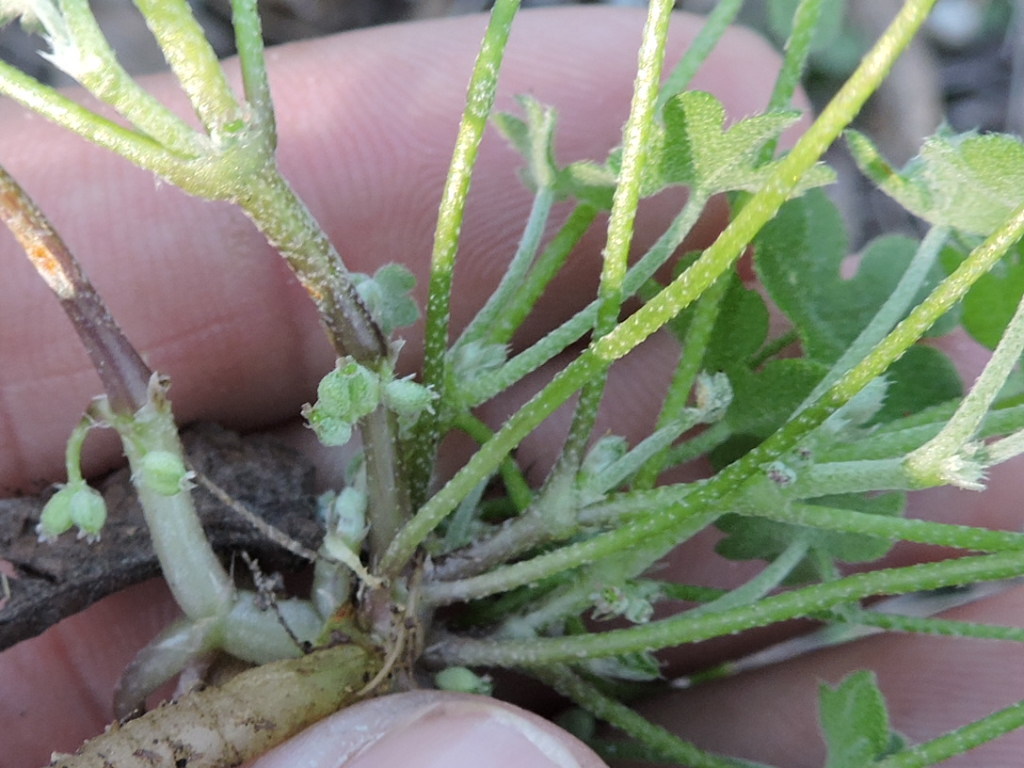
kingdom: Plantae
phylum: Tracheophyta
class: Magnoliopsida
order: Apiales
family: Apiaceae
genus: Bowlesia
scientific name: Bowlesia incana
